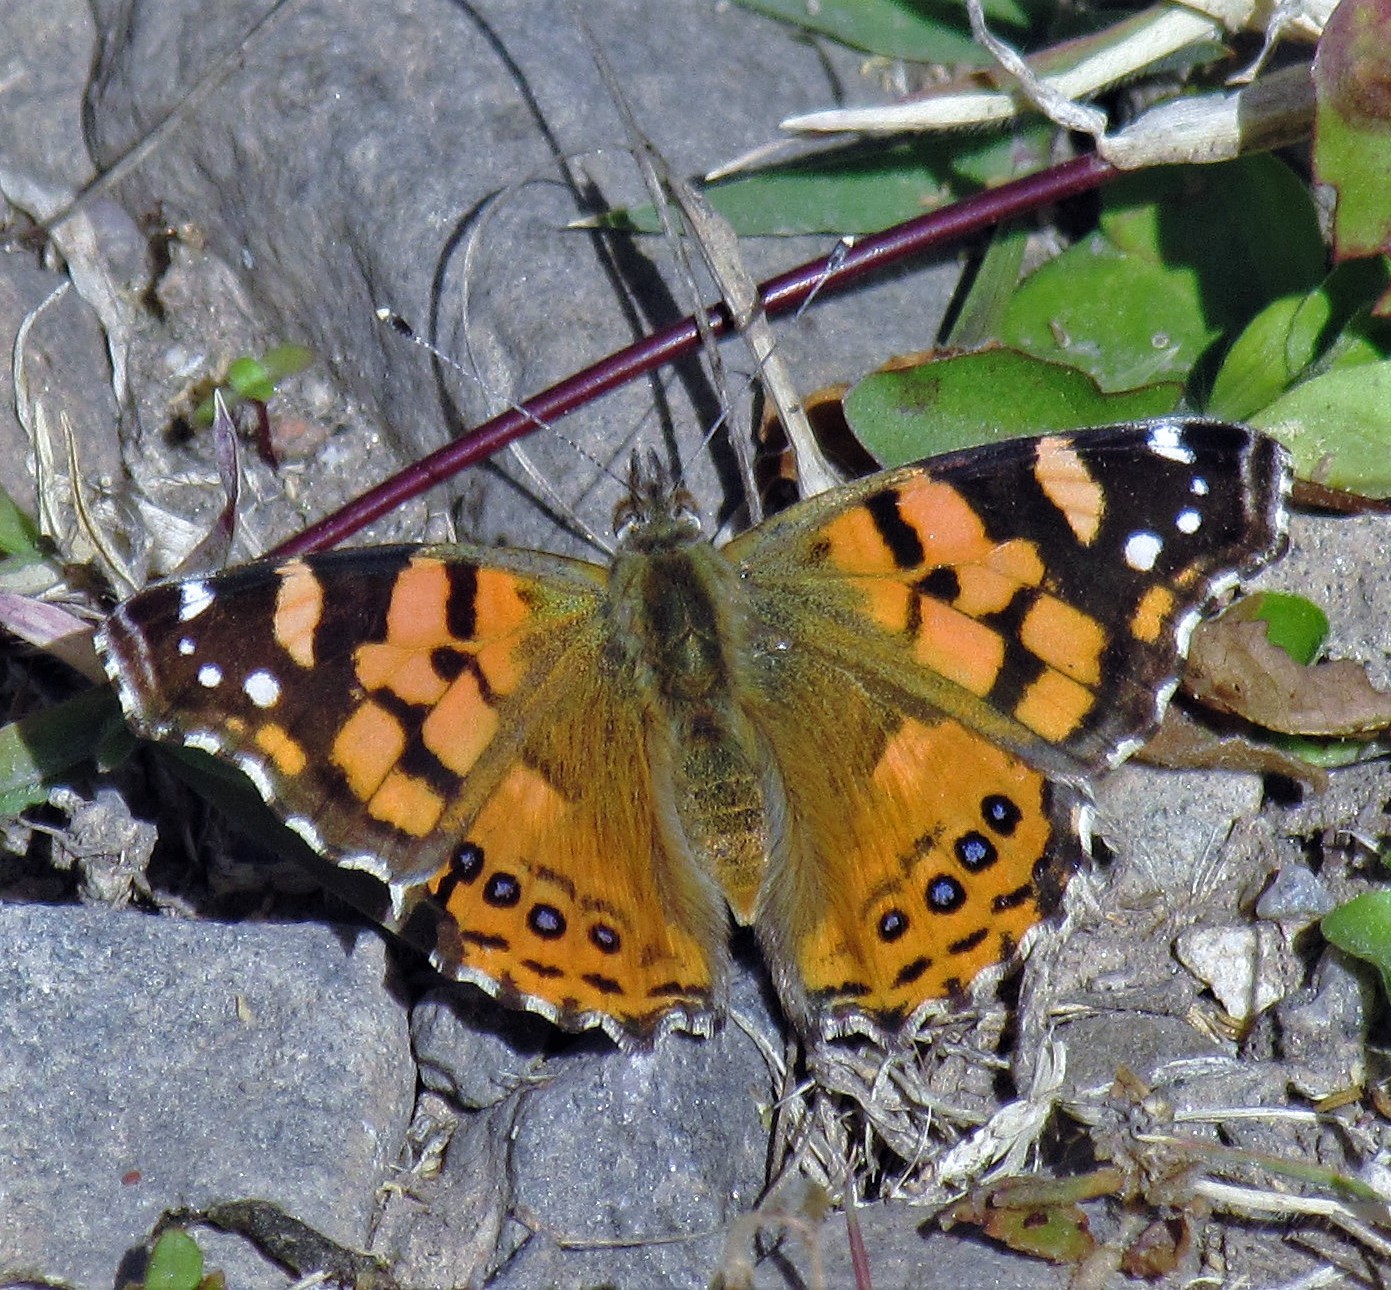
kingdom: Animalia
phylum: Arthropoda
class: Insecta
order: Lepidoptera
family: Nymphalidae
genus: Vanessa
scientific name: Vanessa carye
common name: Subtropical lady
